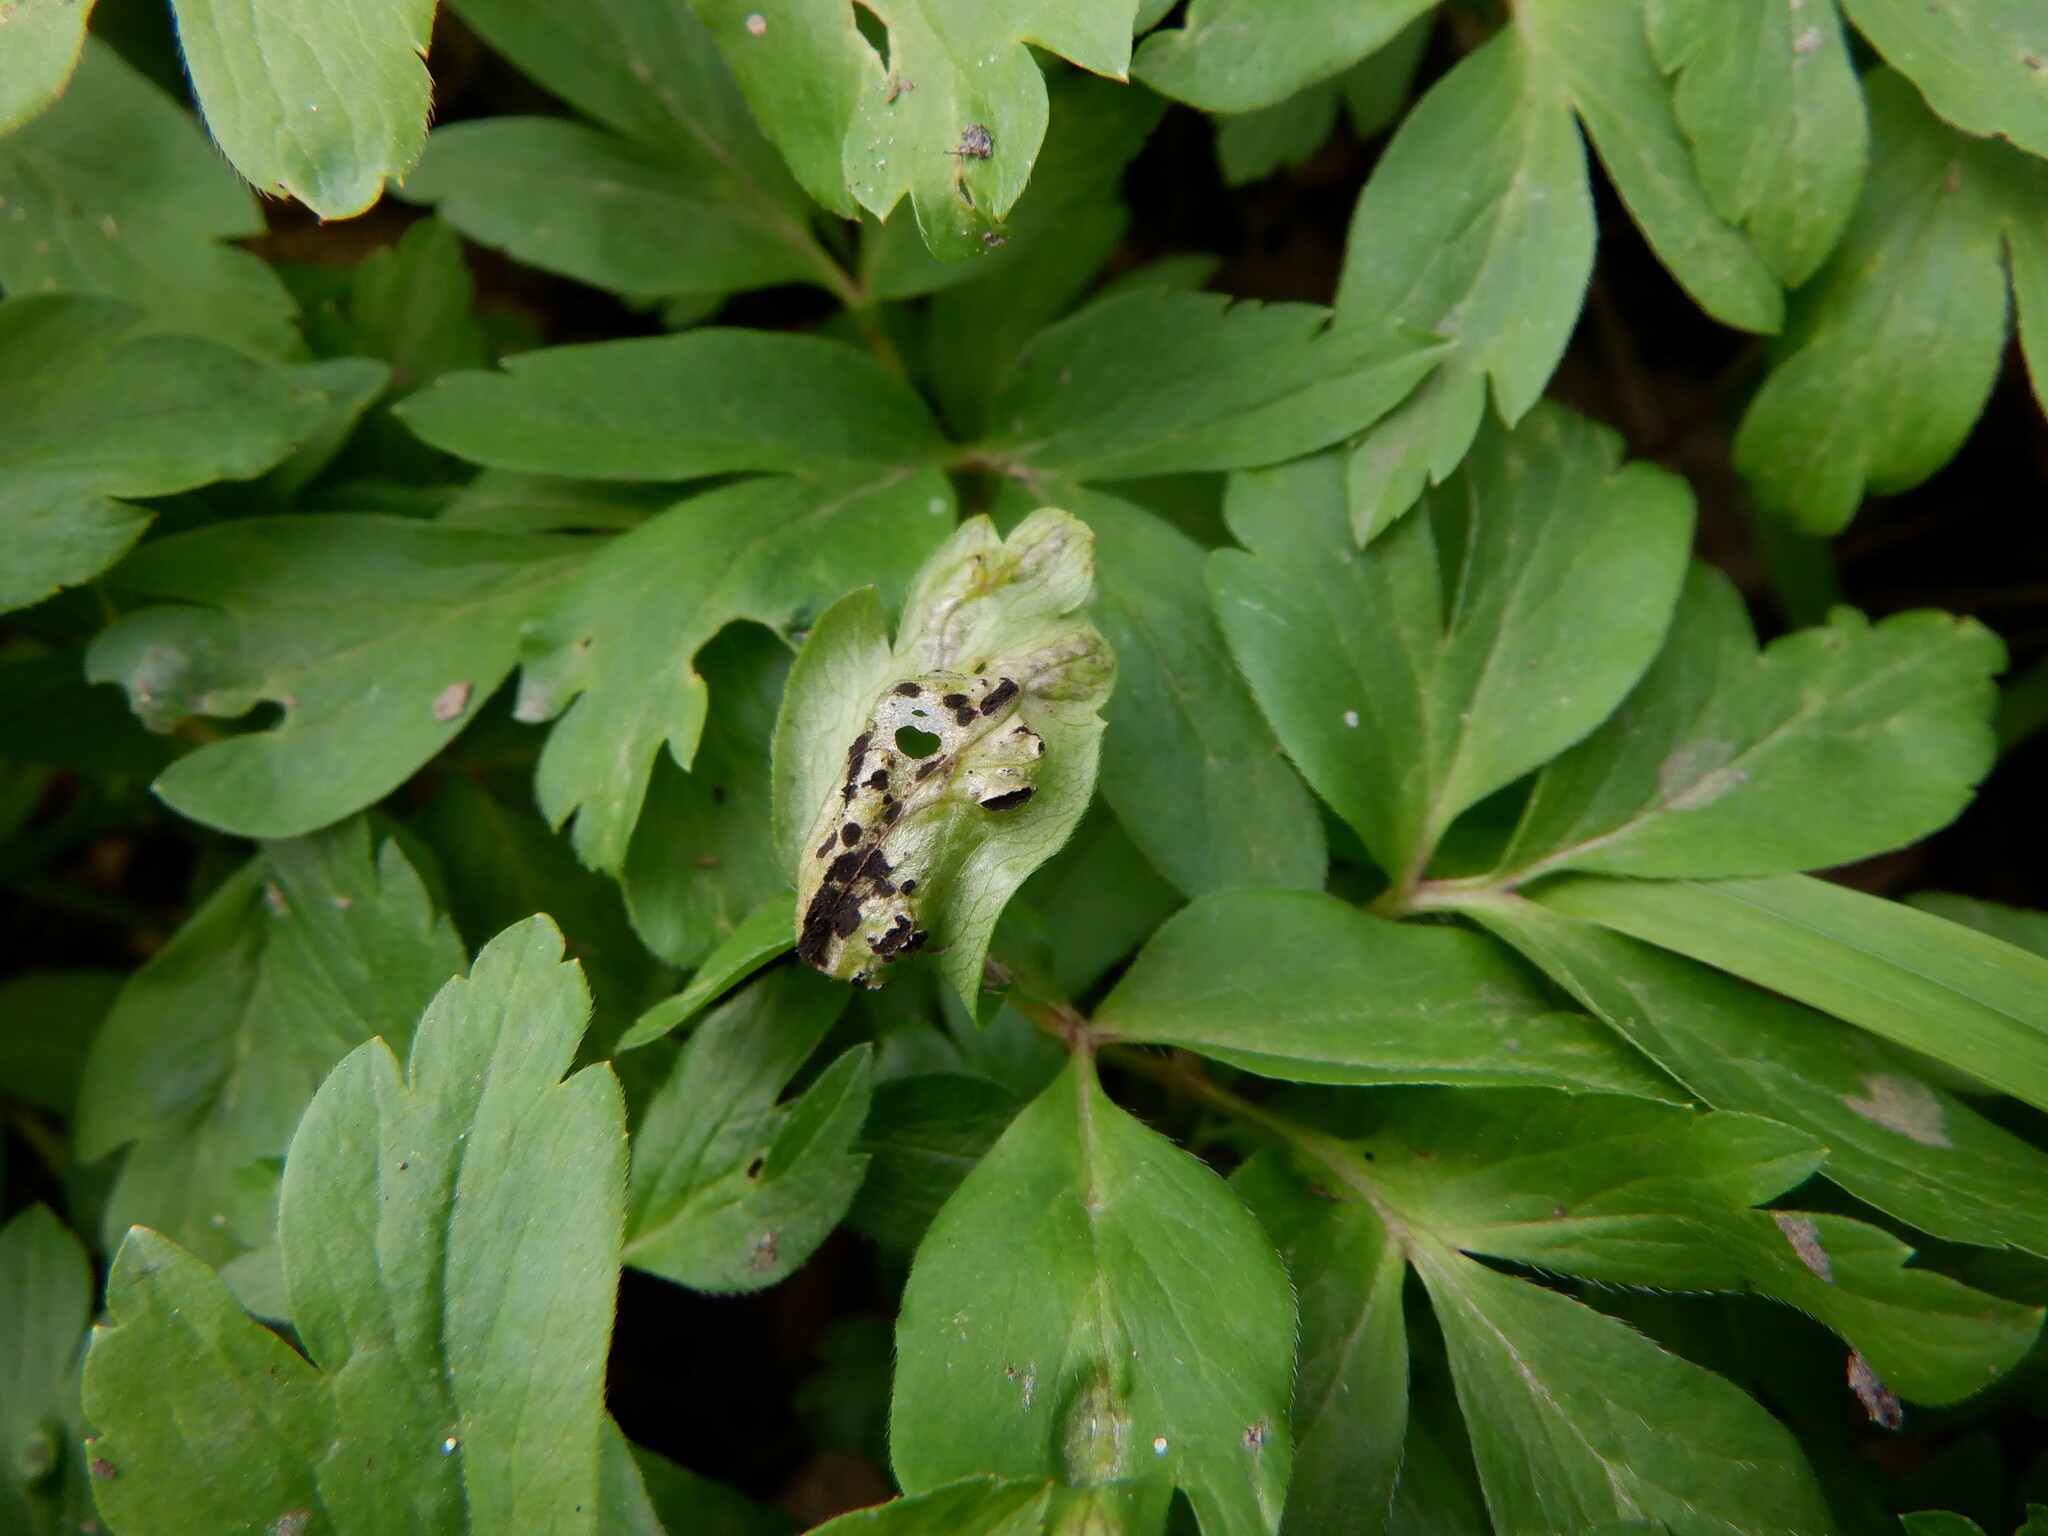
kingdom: Plantae
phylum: Tracheophyta
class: Magnoliopsida
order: Ranunculales
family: Ranunculaceae
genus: Anemone
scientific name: Anemone nemorosa
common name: Wood anemone
